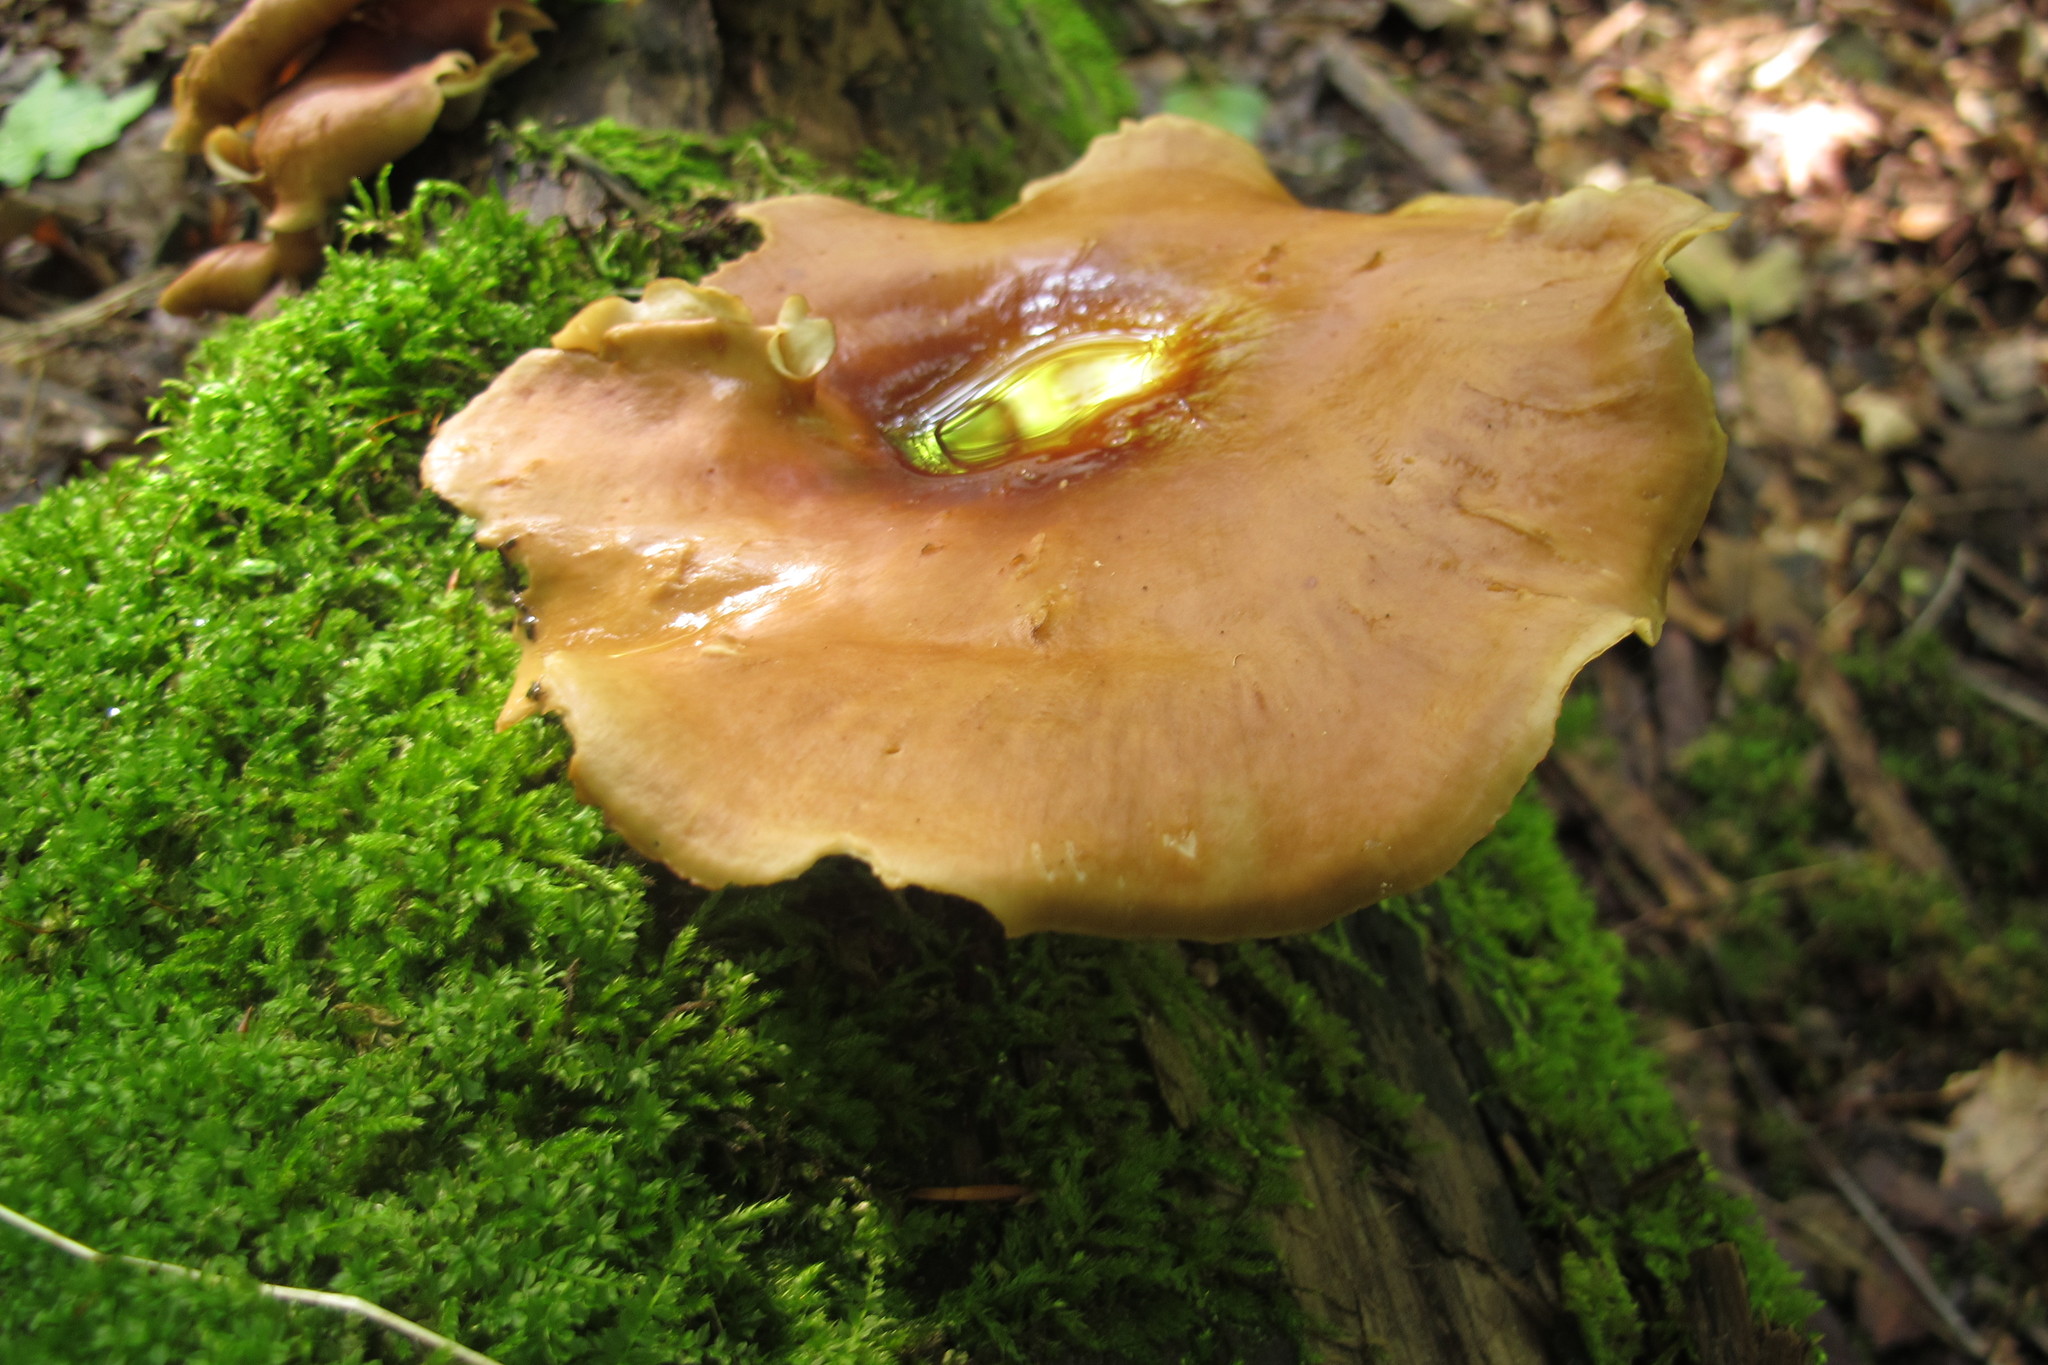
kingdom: Fungi
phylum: Basidiomycota
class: Agaricomycetes
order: Polyporales
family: Polyporaceae
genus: Picipes
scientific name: Picipes badius
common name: Bay polypore
